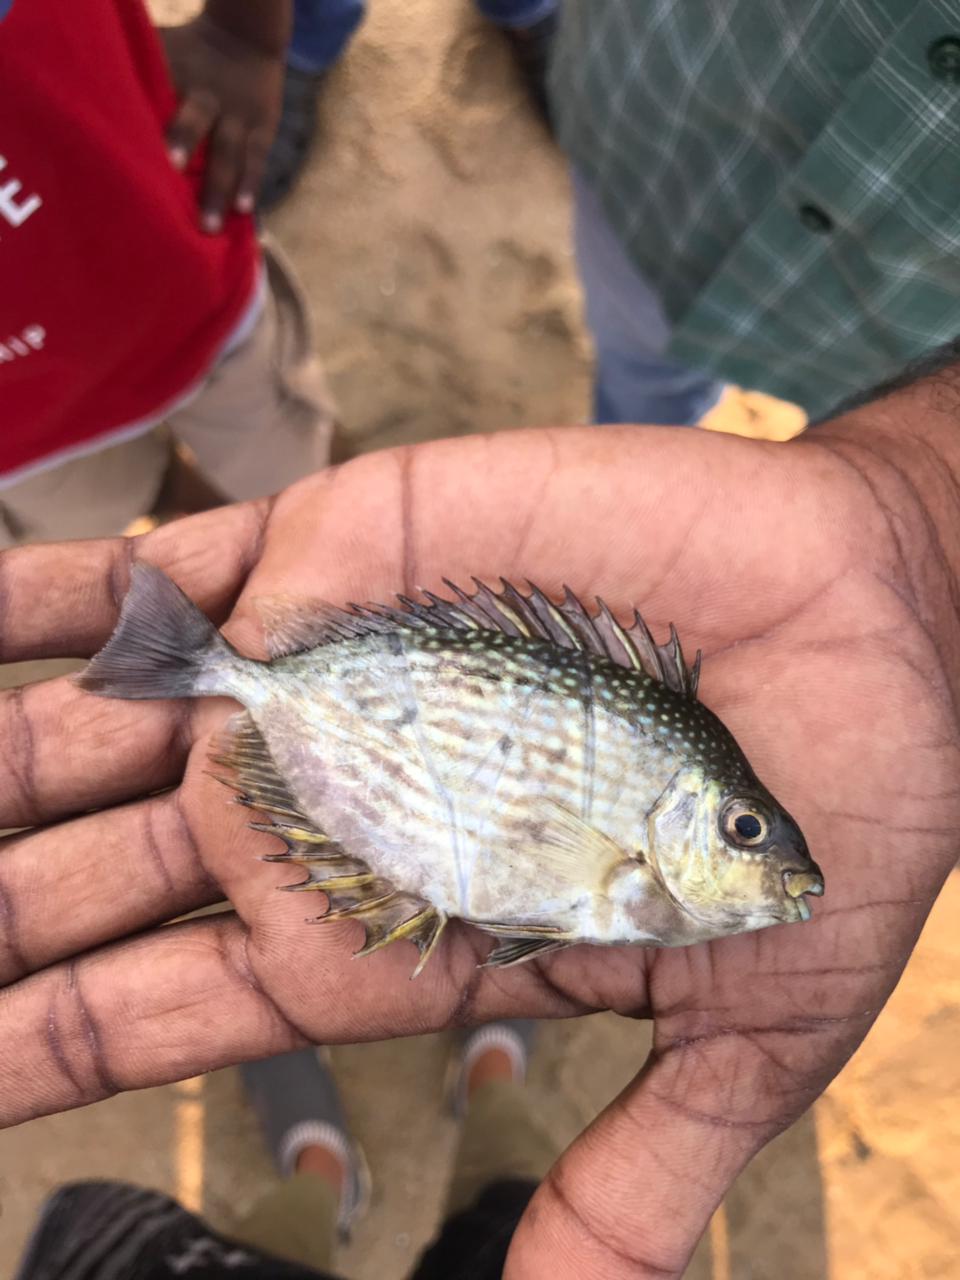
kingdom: Animalia
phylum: Chordata
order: Perciformes
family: Siganidae
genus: Siganus
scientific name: Siganus javus
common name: Java rabbitfish
